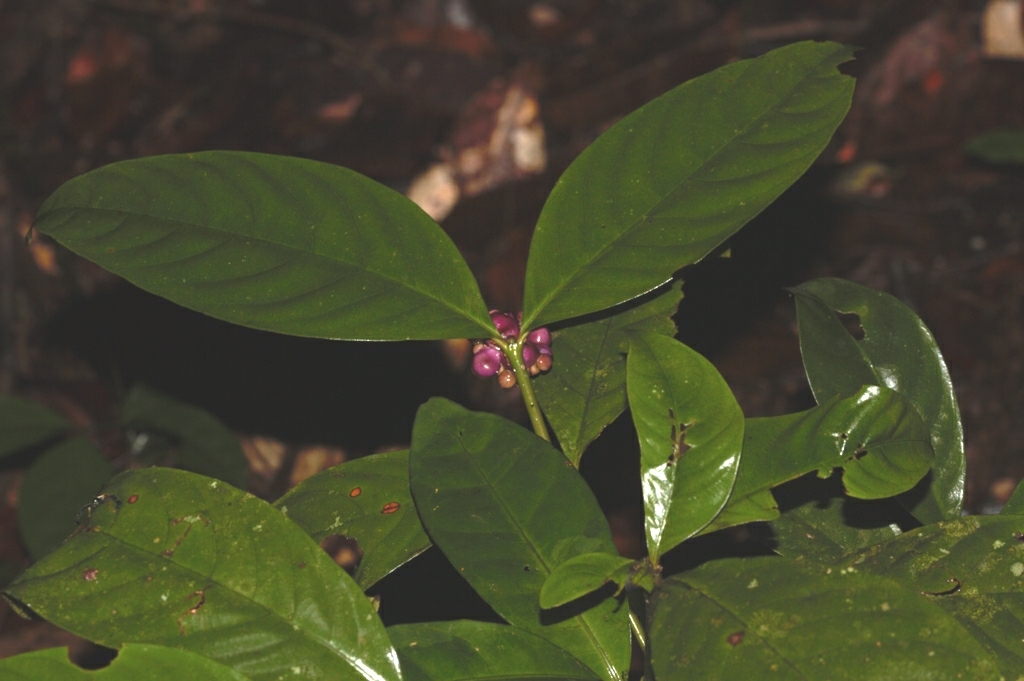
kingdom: Plantae
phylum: Tracheophyta
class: Magnoliopsida
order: Gentianales
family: Rubiaceae
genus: Palicourea
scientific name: Palicourea dichotoma
